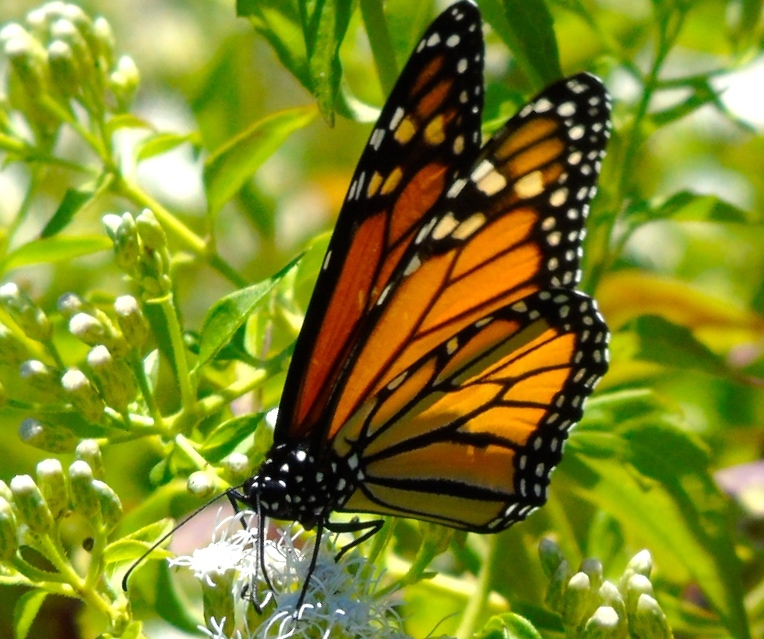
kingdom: Animalia
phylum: Arthropoda
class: Insecta
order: Lepidoptera
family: Nymphalidae
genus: Danaus
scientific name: Danaus plexippus
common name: Monarch
